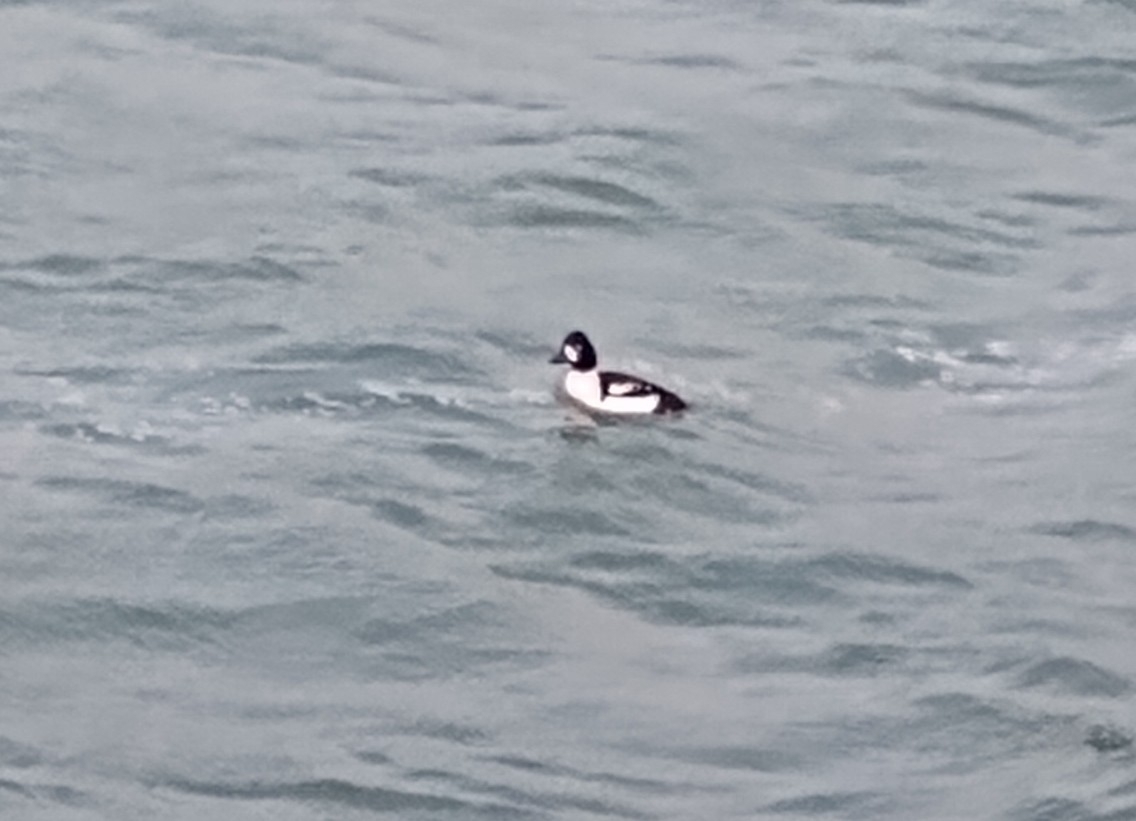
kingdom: Animalia
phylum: Chordata
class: Aves
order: Anseriformes
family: Anatidae
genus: Bucephala
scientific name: Bucephala islandica
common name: Barrow's goldeneye
